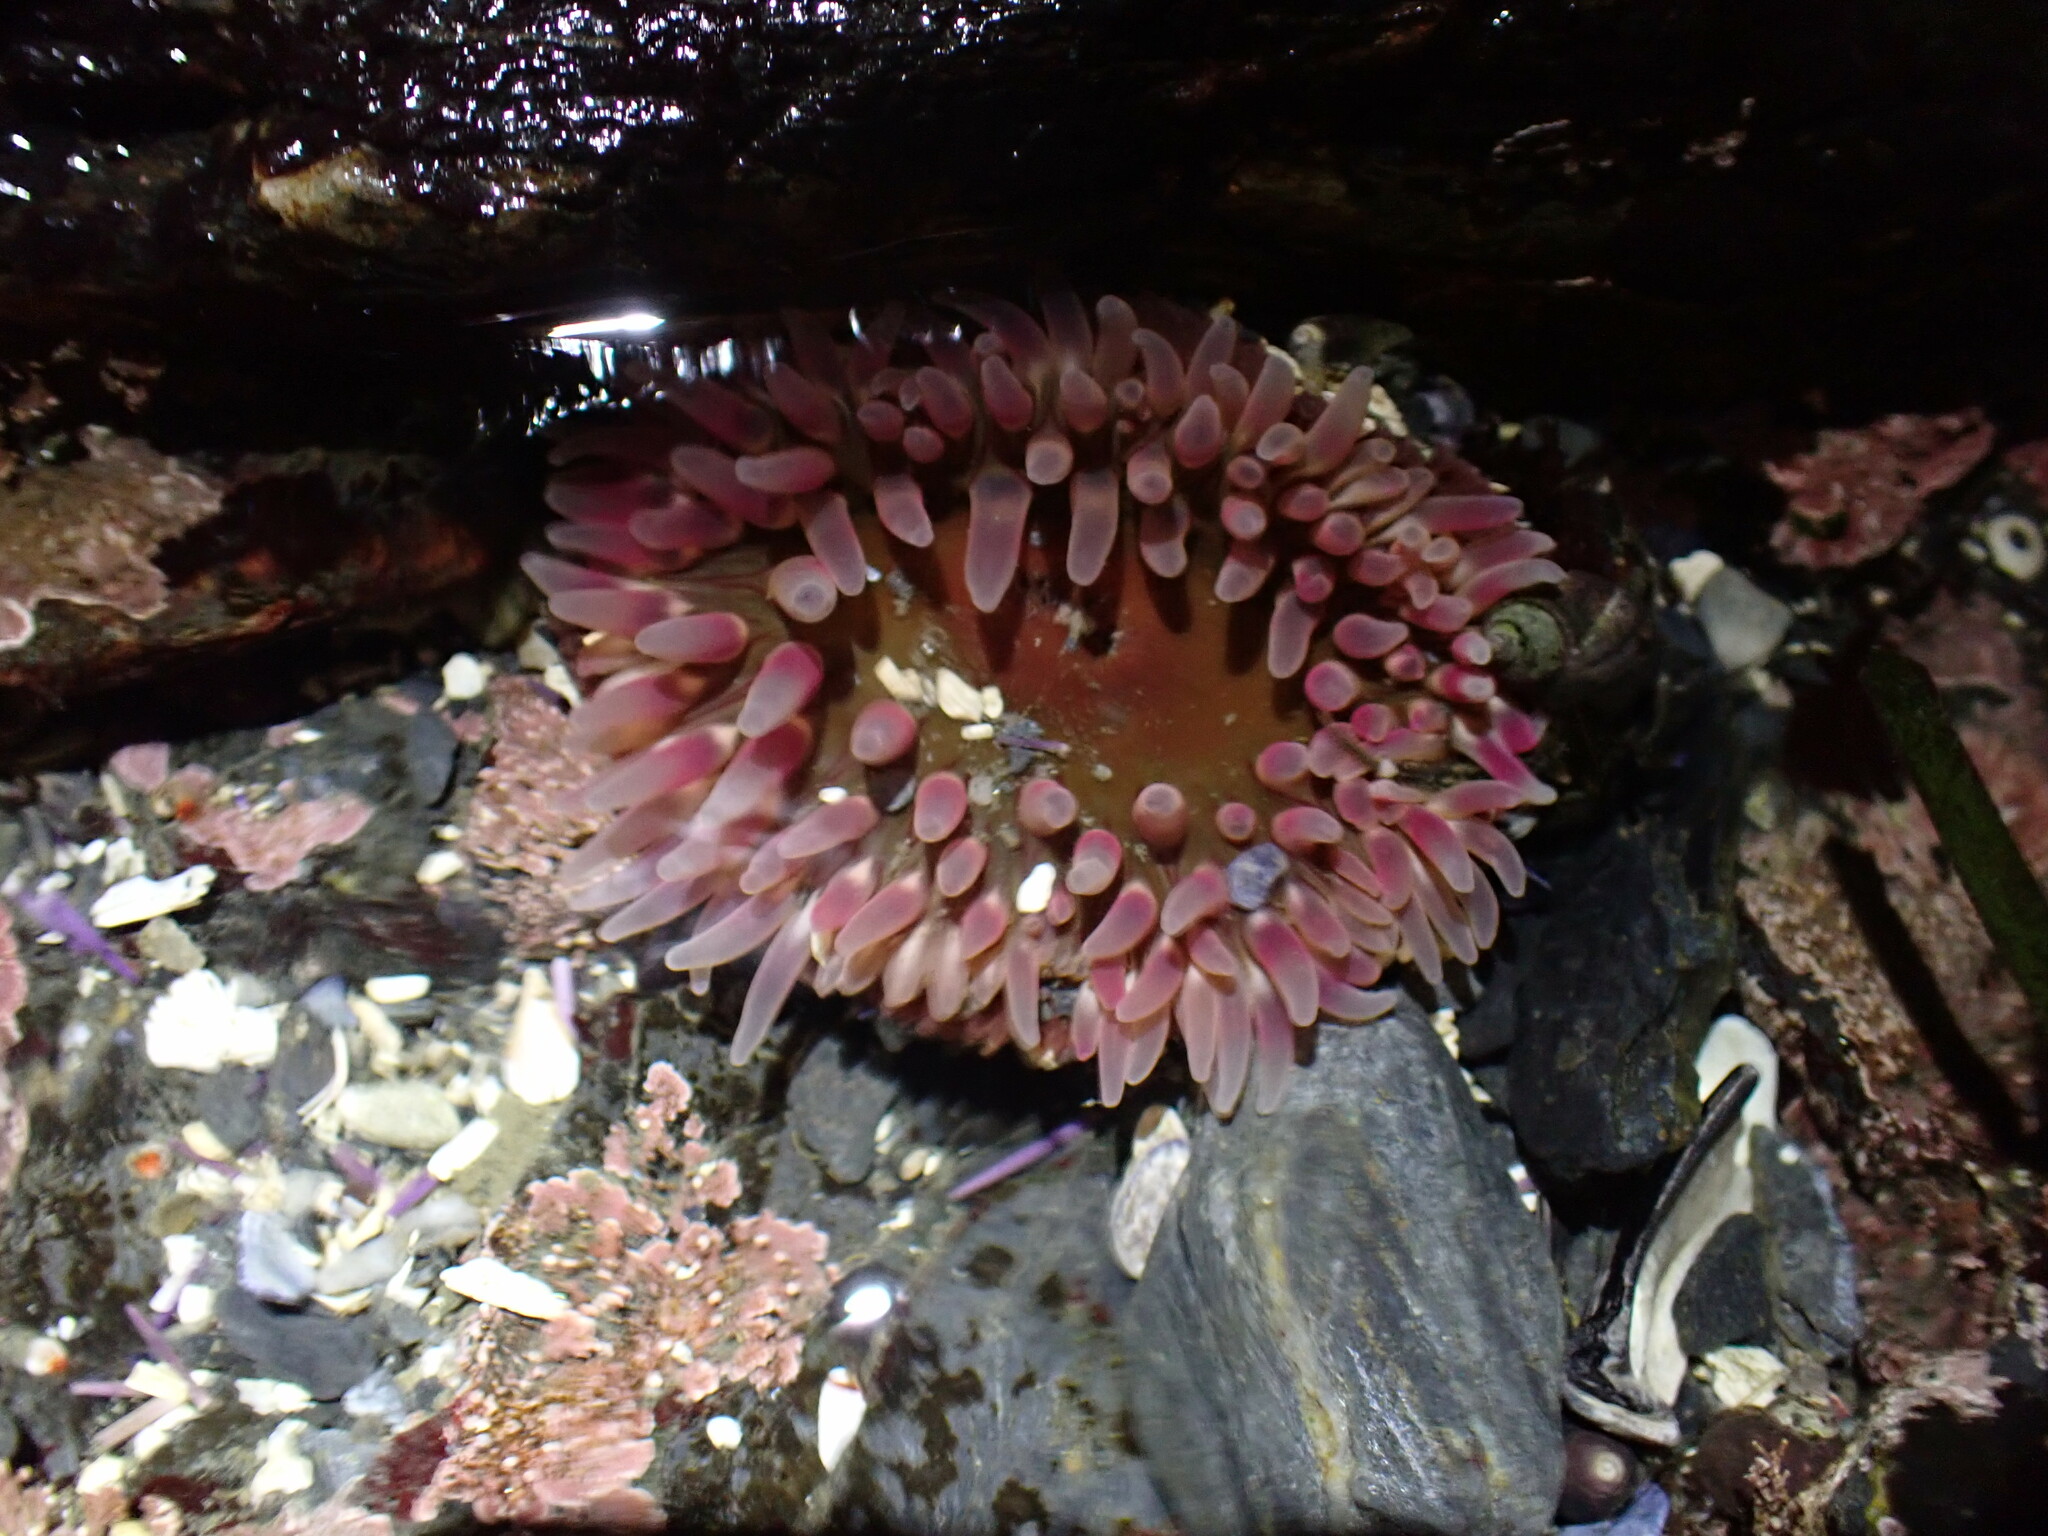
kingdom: Animalia
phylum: Cnidaria
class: Anthozoa
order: Actiniaria
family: Actiniidae
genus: Urticina
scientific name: Urticina clandestina
